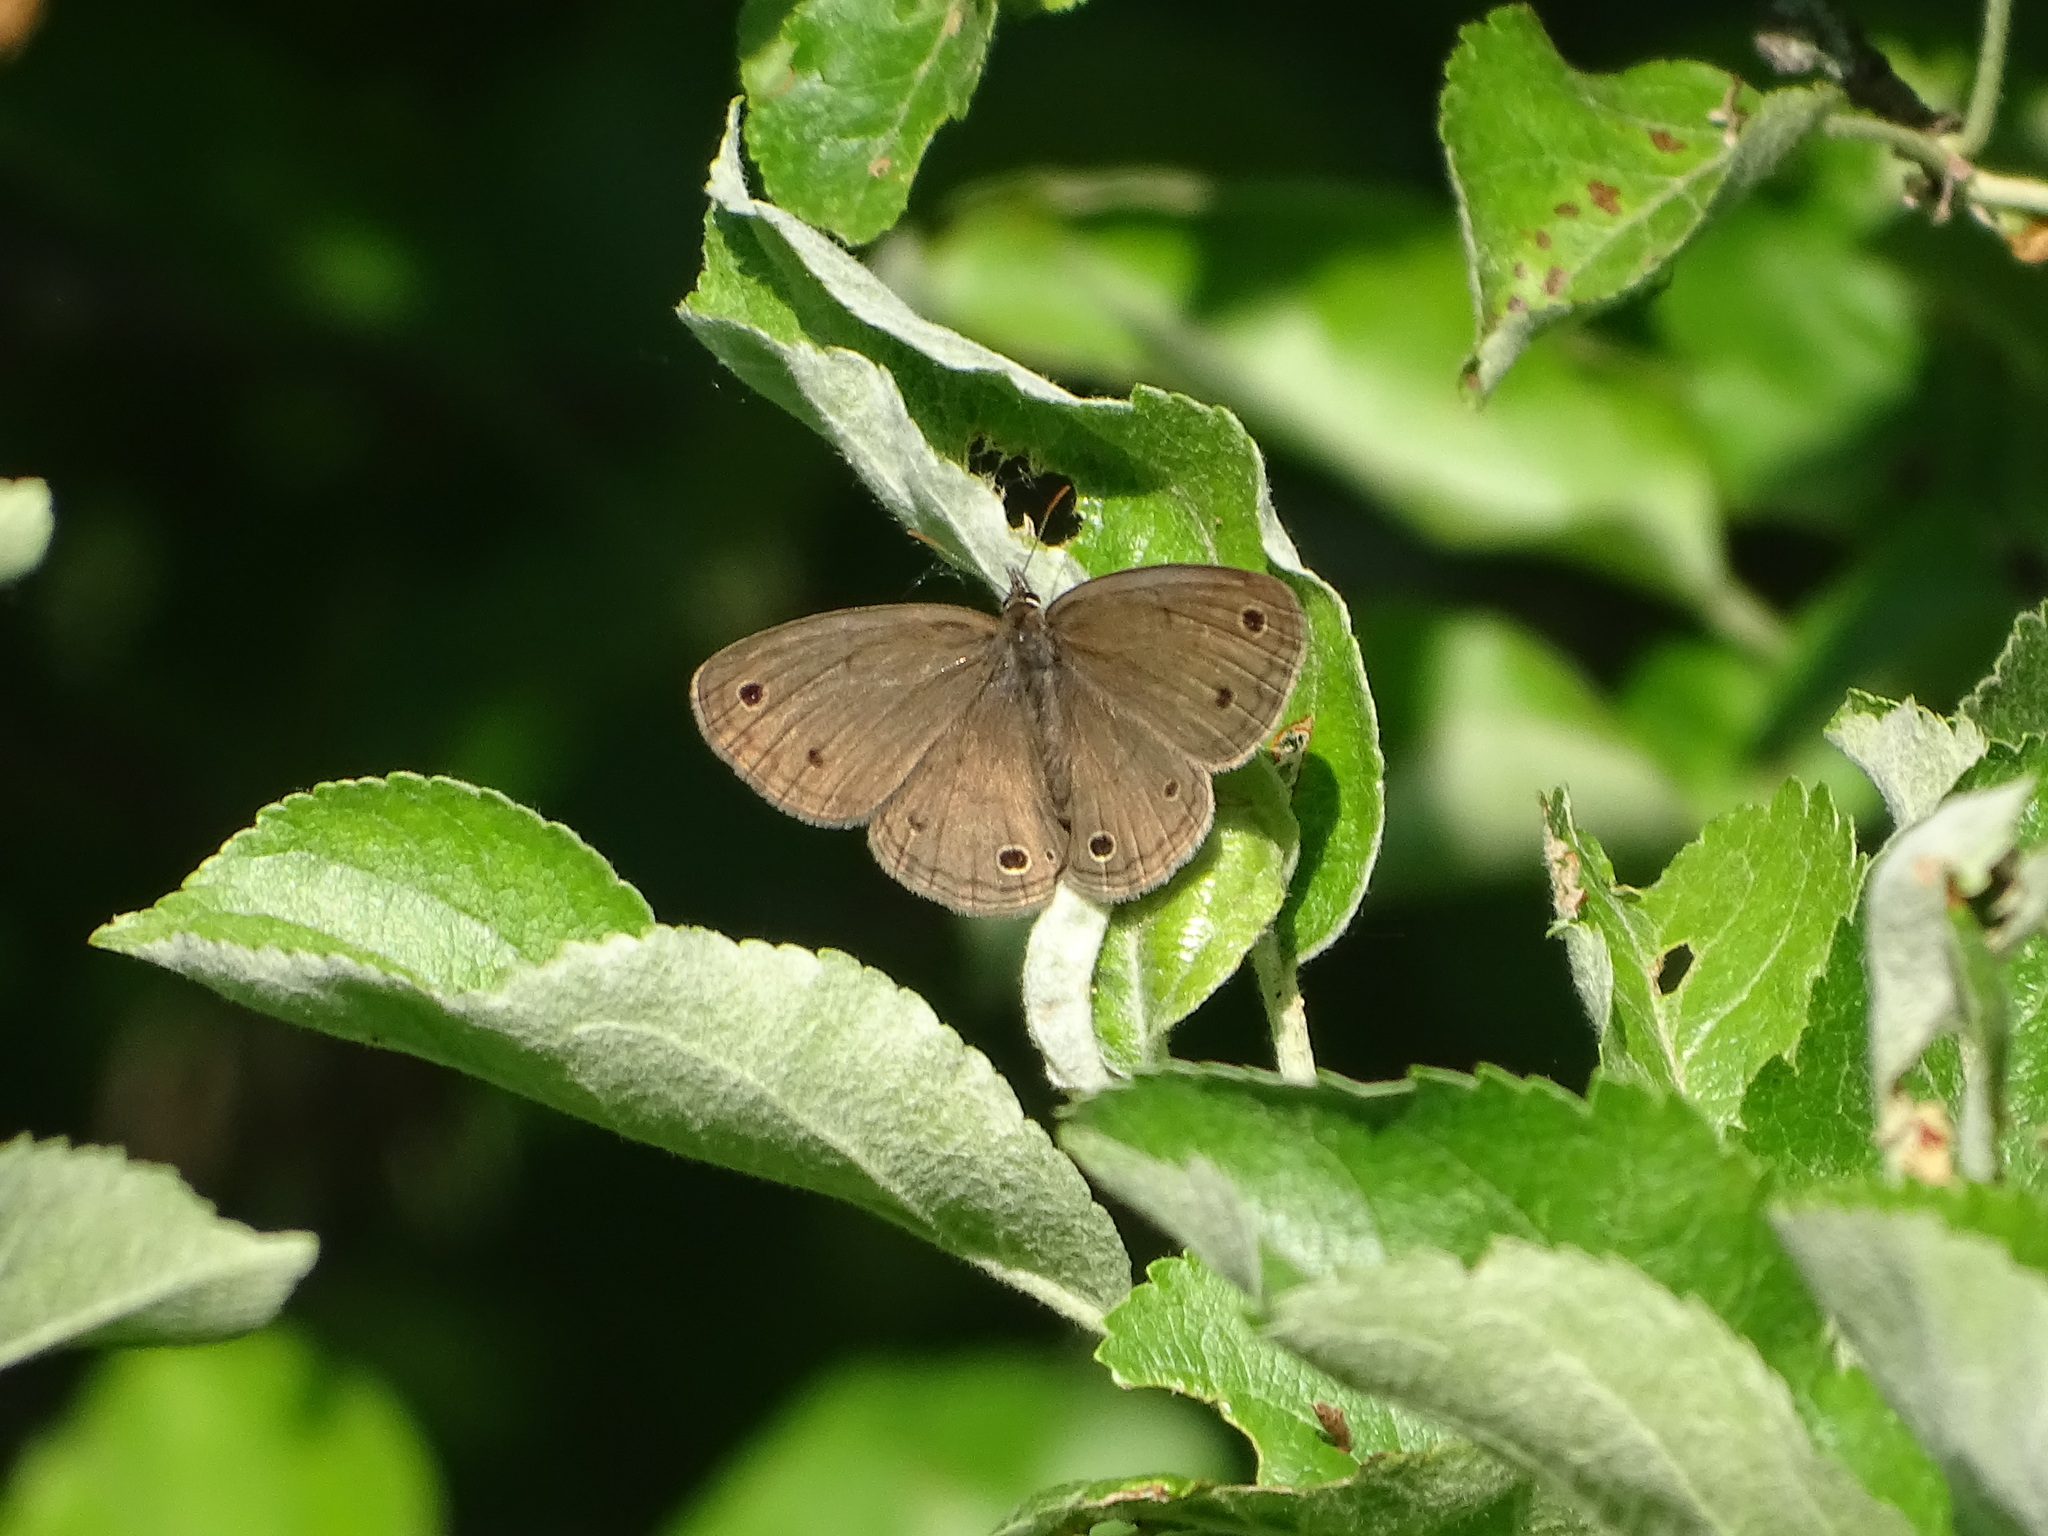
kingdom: Animalia
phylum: Arthropoda
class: Insecta
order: Lepidoptera
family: Nymphalidae
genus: Euptychia
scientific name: Euptychia cymela
